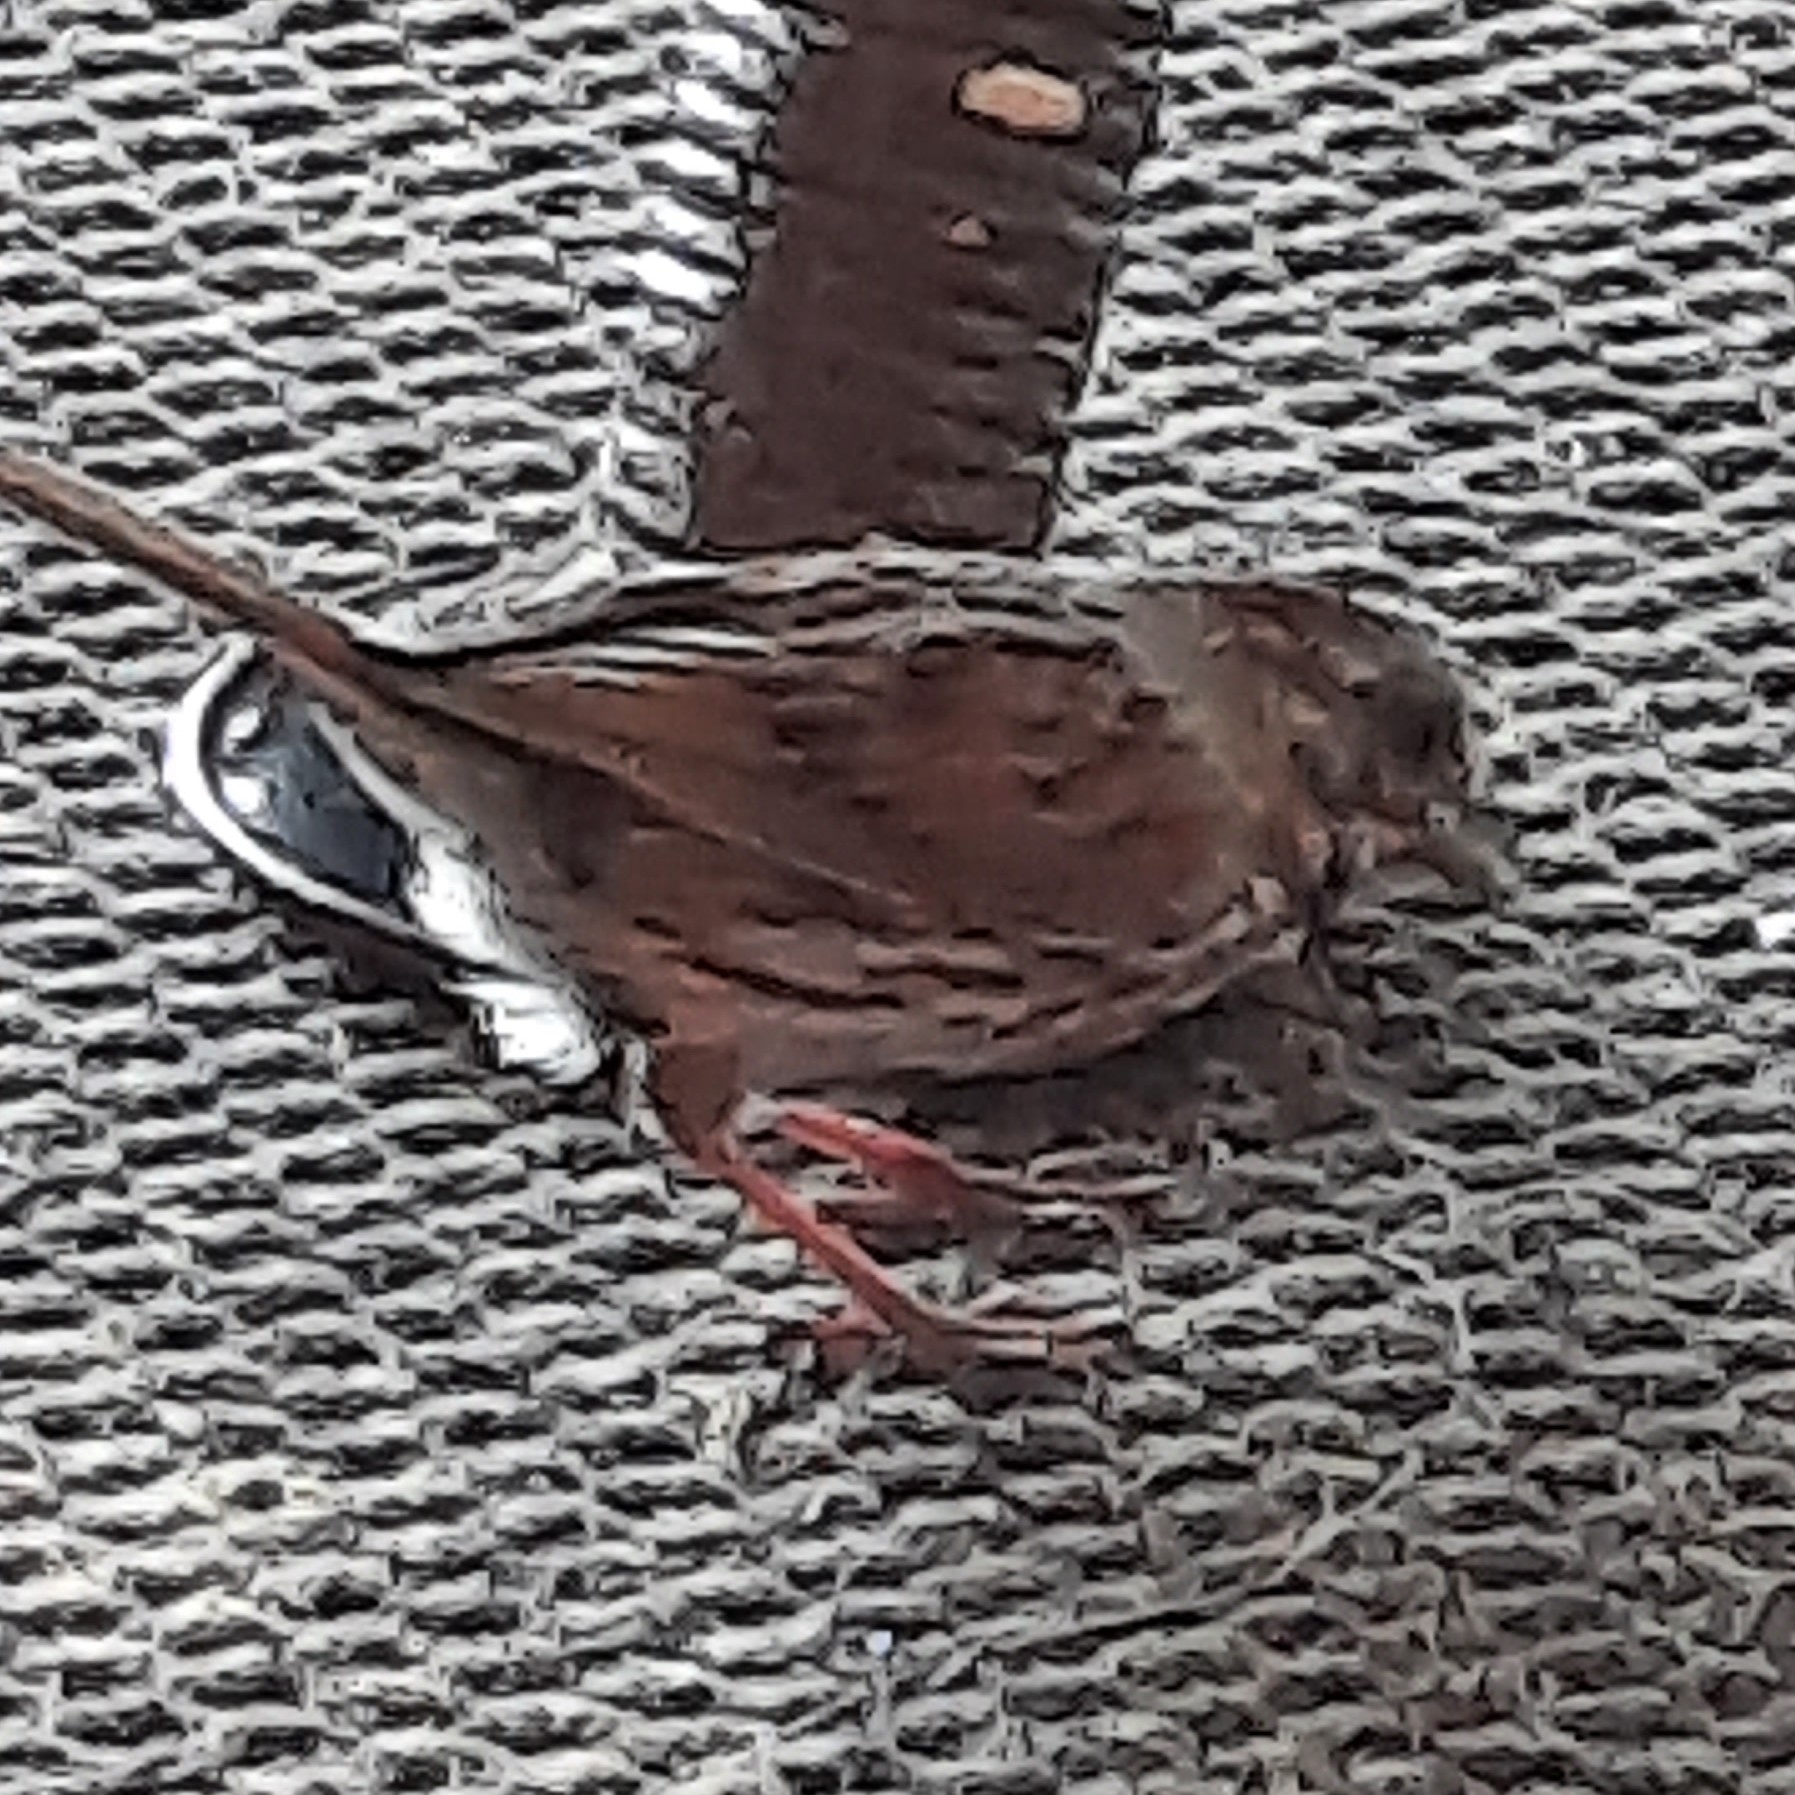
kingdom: Animalia
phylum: Chordata
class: Aves
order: Passeriformes
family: Passerellidae
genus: Melospiza
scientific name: Melospiza melodia
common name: Song sparrow
